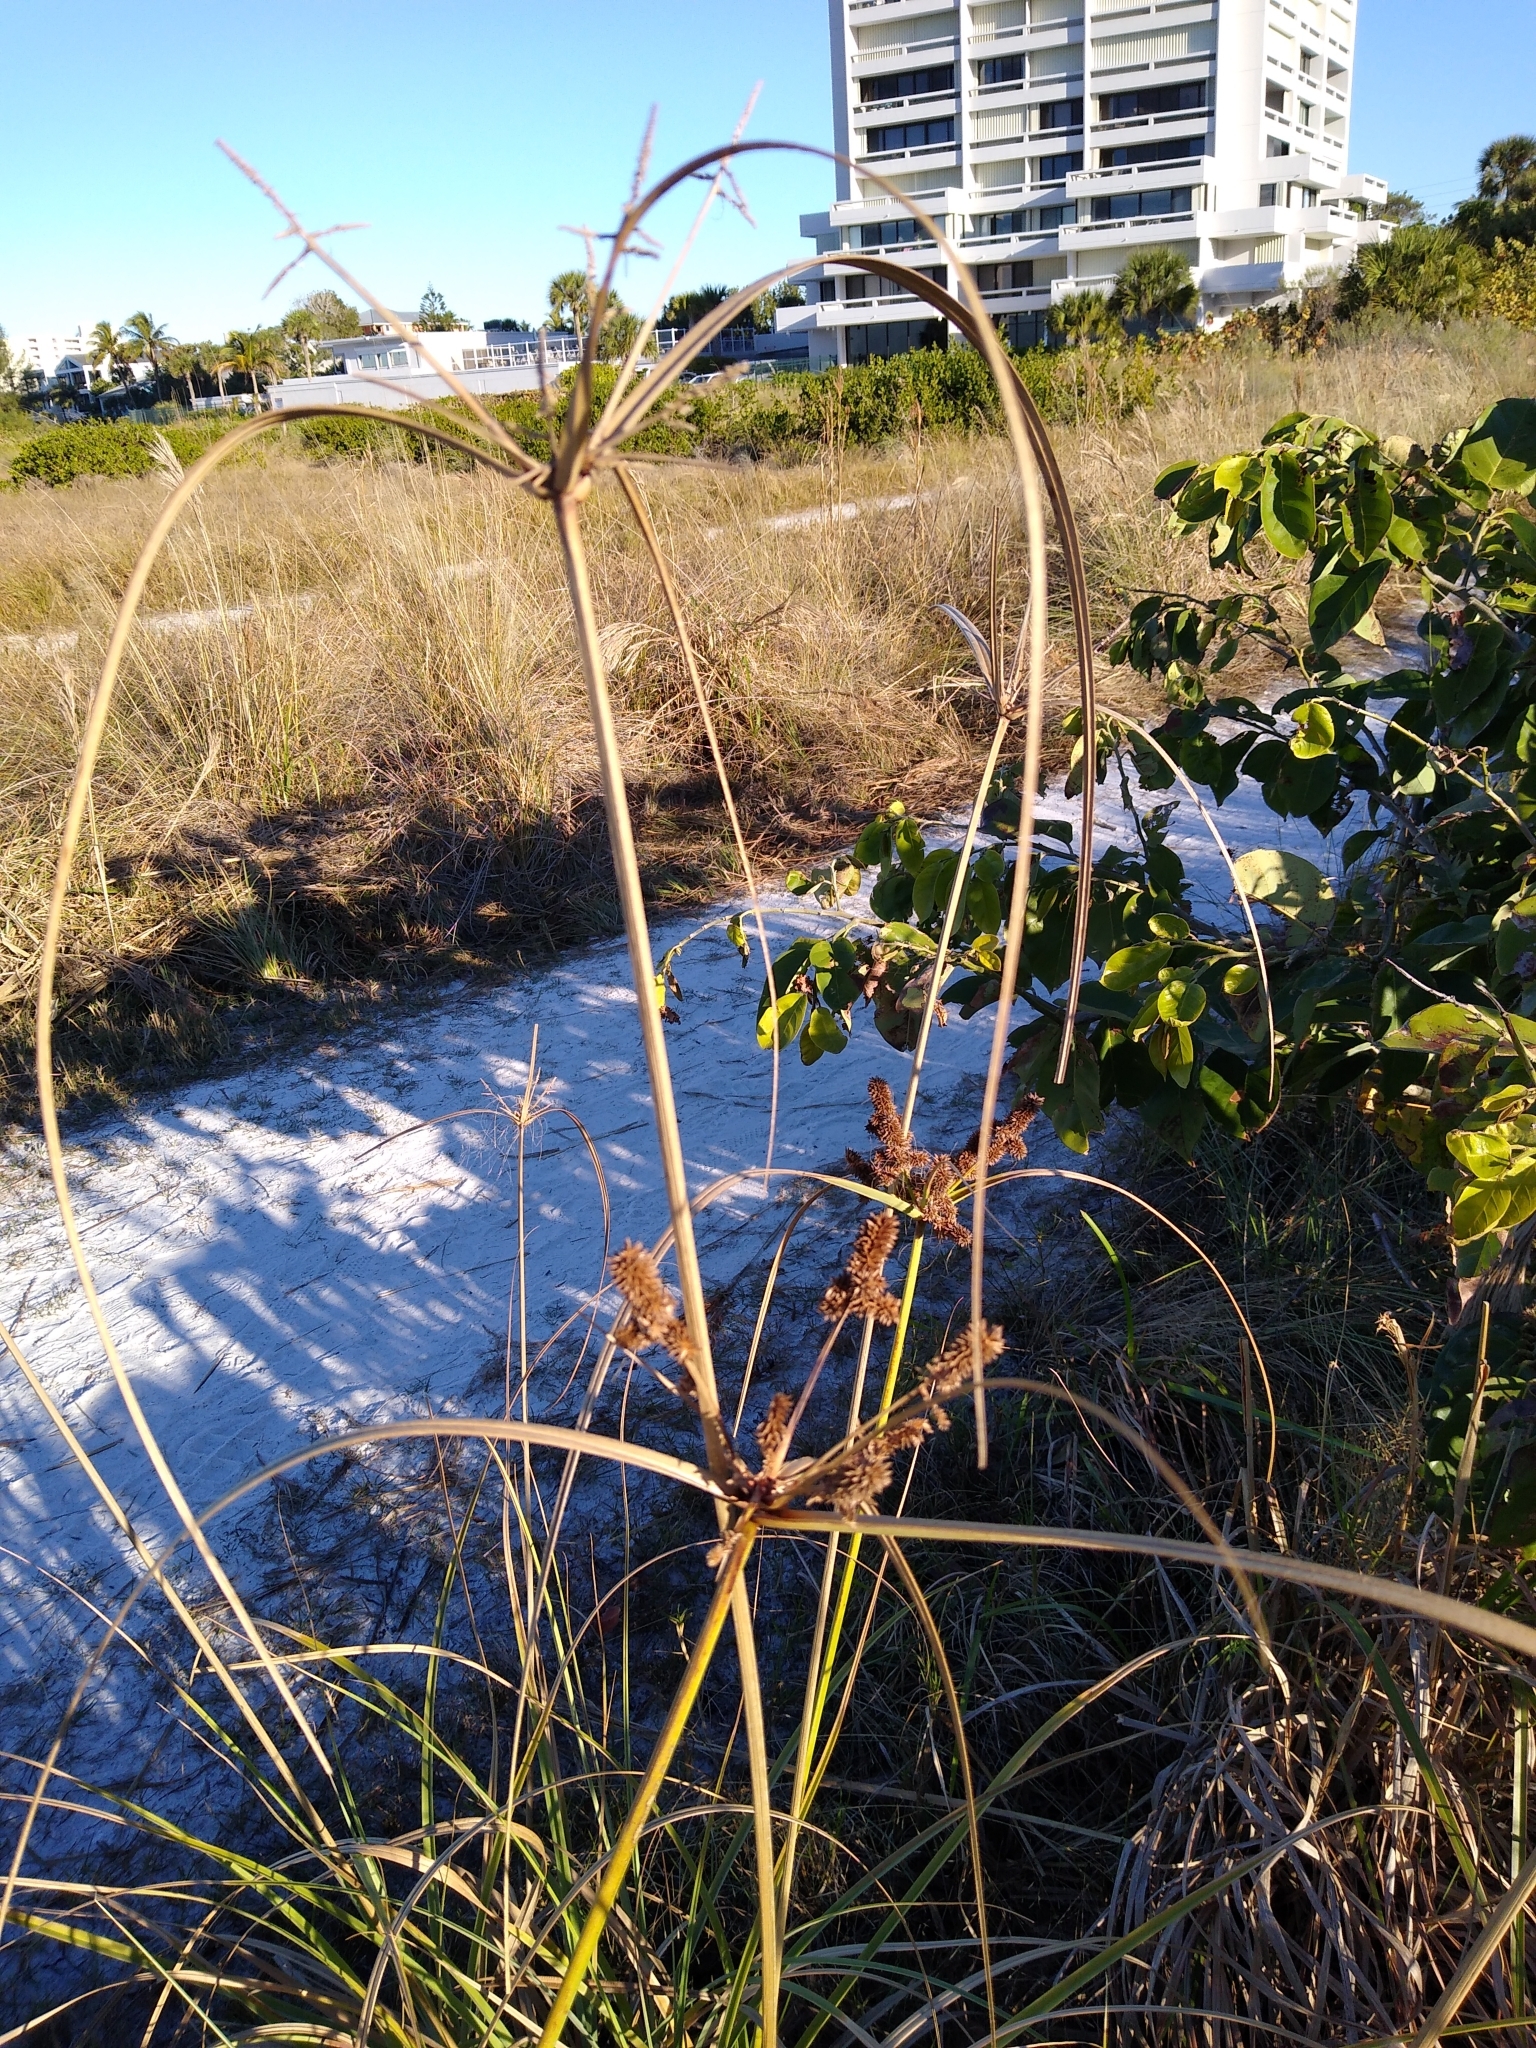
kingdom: Plantae
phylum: Tracheophyta
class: Liliopsida
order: Poales
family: Cyperaceae
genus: Cyperus
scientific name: Cyperus ligularis
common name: Swamp flat sedge
